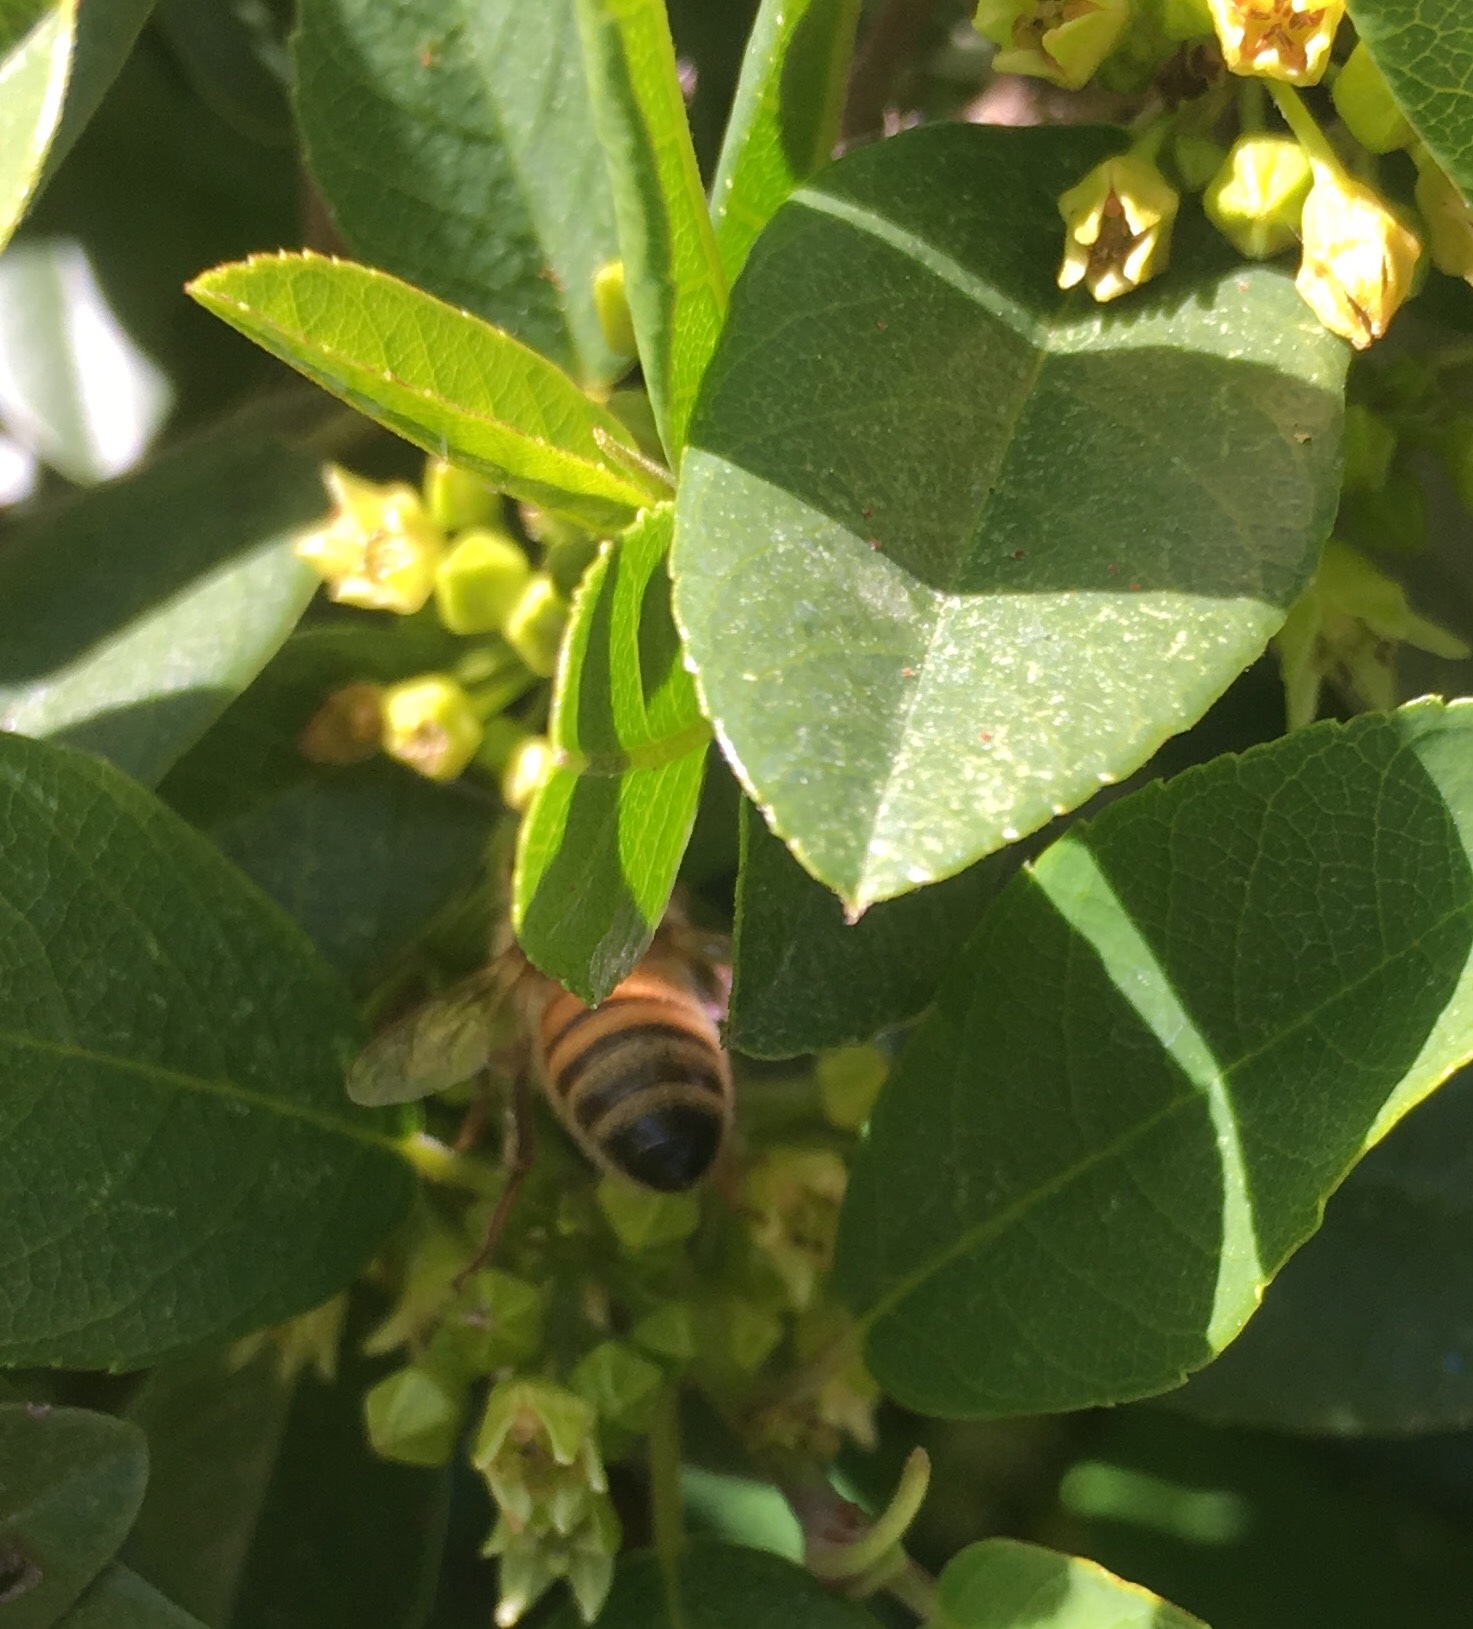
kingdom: Animalia
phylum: Arthropoda
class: Insecta
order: Hymenoptera
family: Apidae
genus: Apis
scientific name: Apis mellifera
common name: Honey bee
